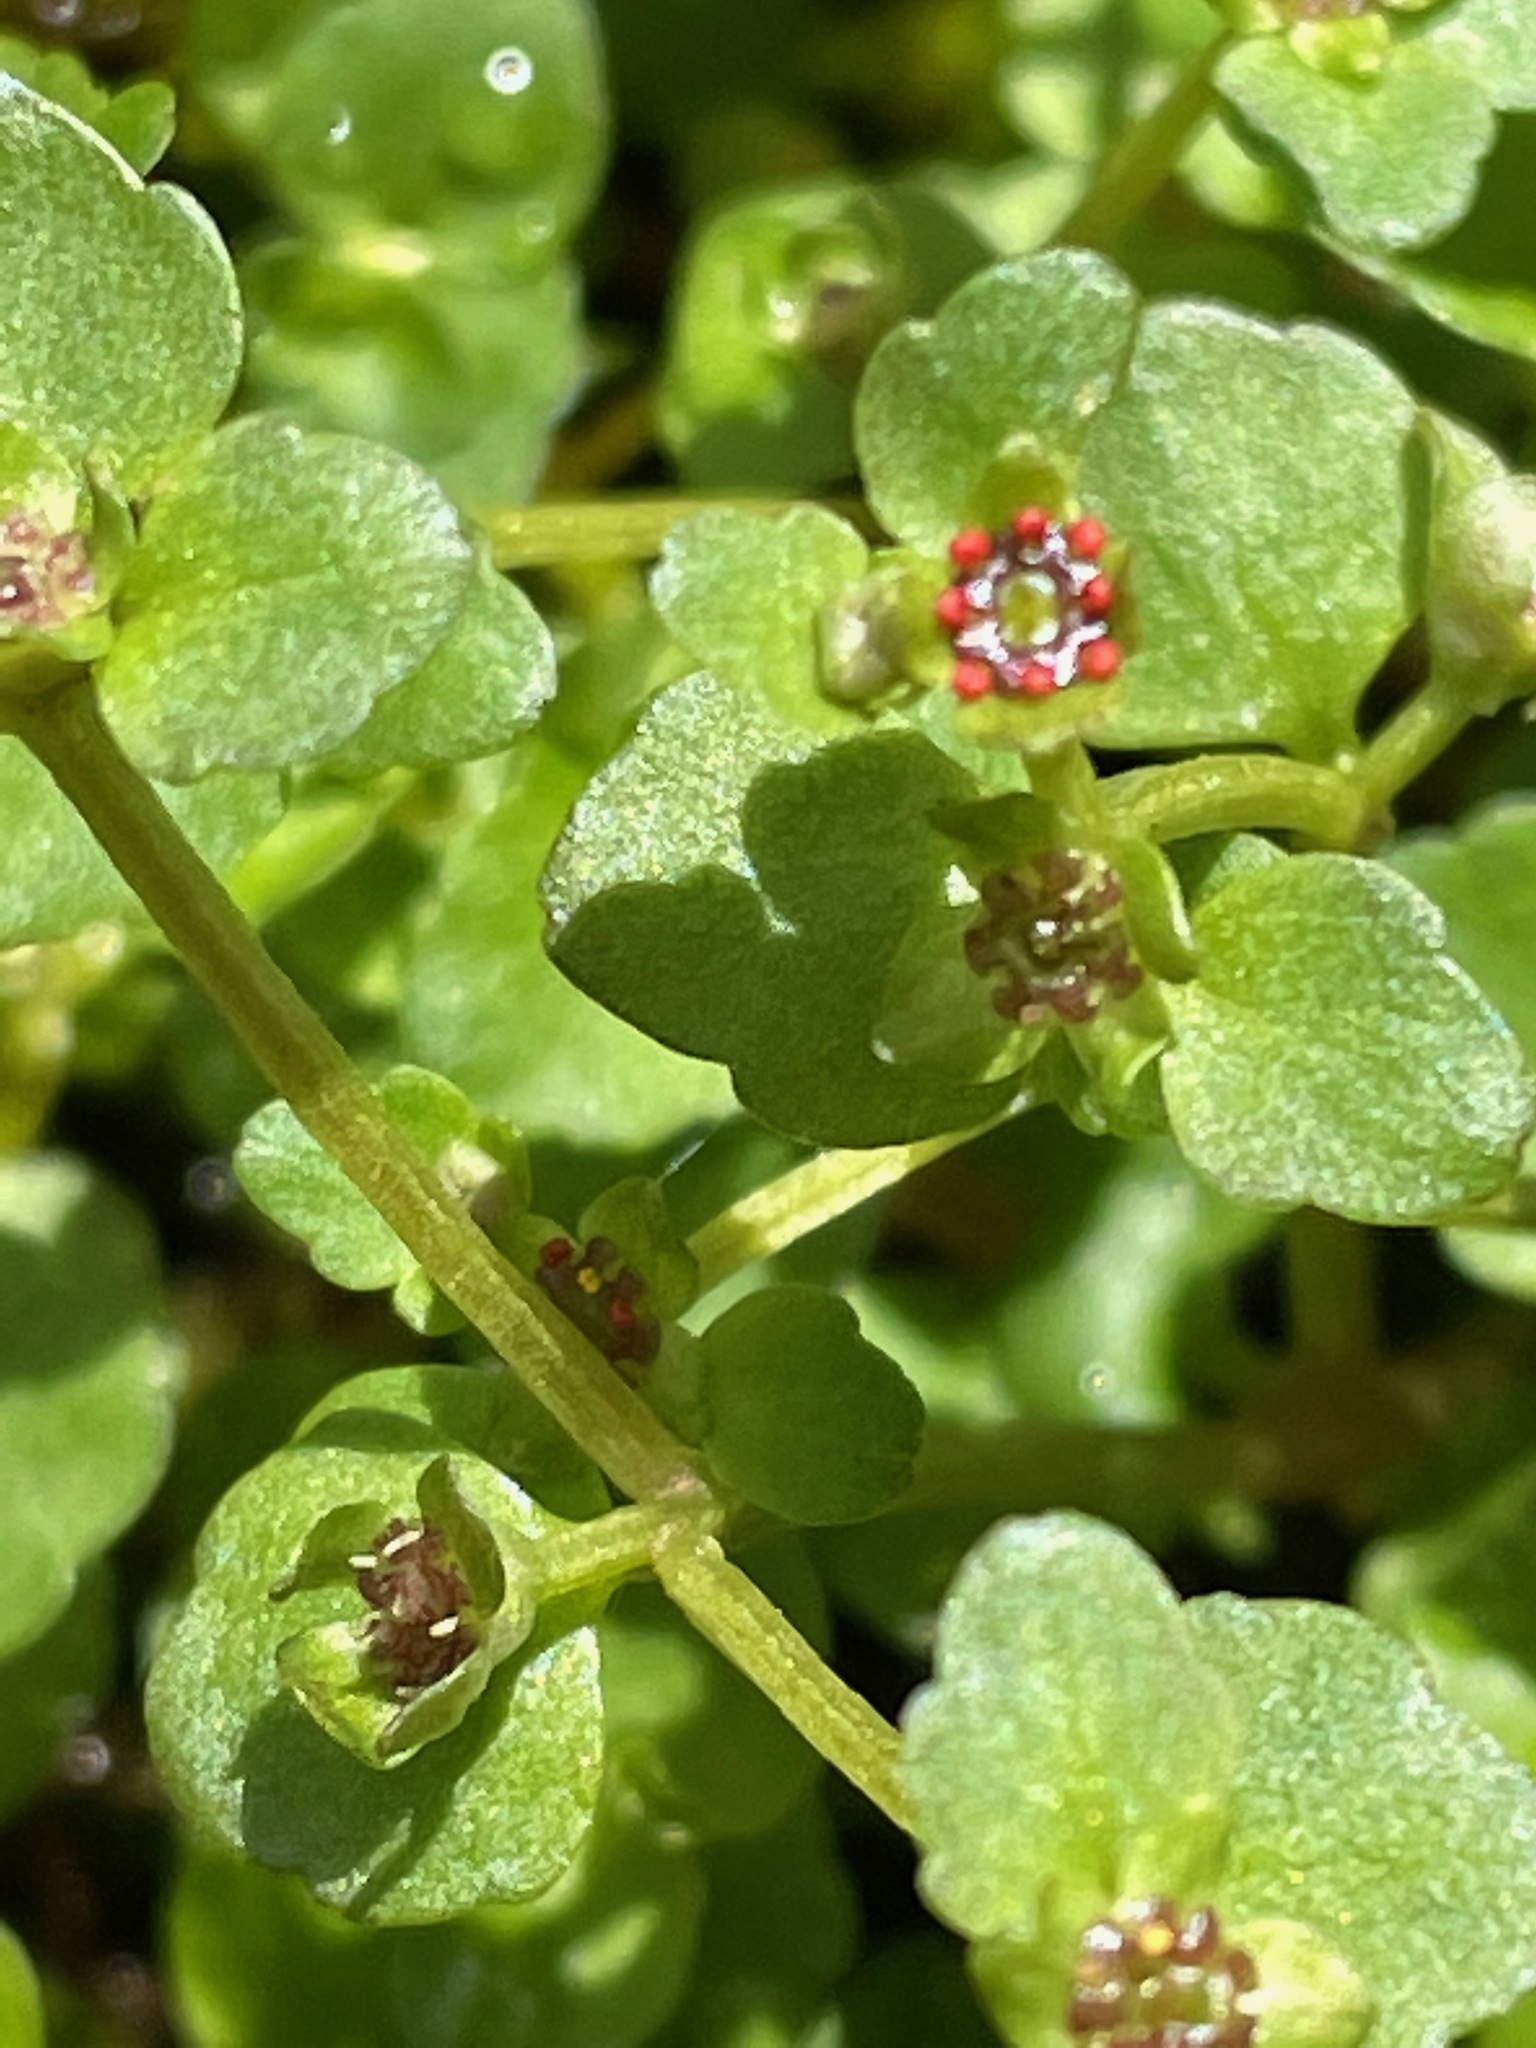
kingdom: Plantae
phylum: Tracheophyta
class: Magnoliopsida
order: Saxifragales
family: Saxifragaceae
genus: Chrysosplenium
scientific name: Chrysosplenium americanum
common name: American golden-saxifrage
